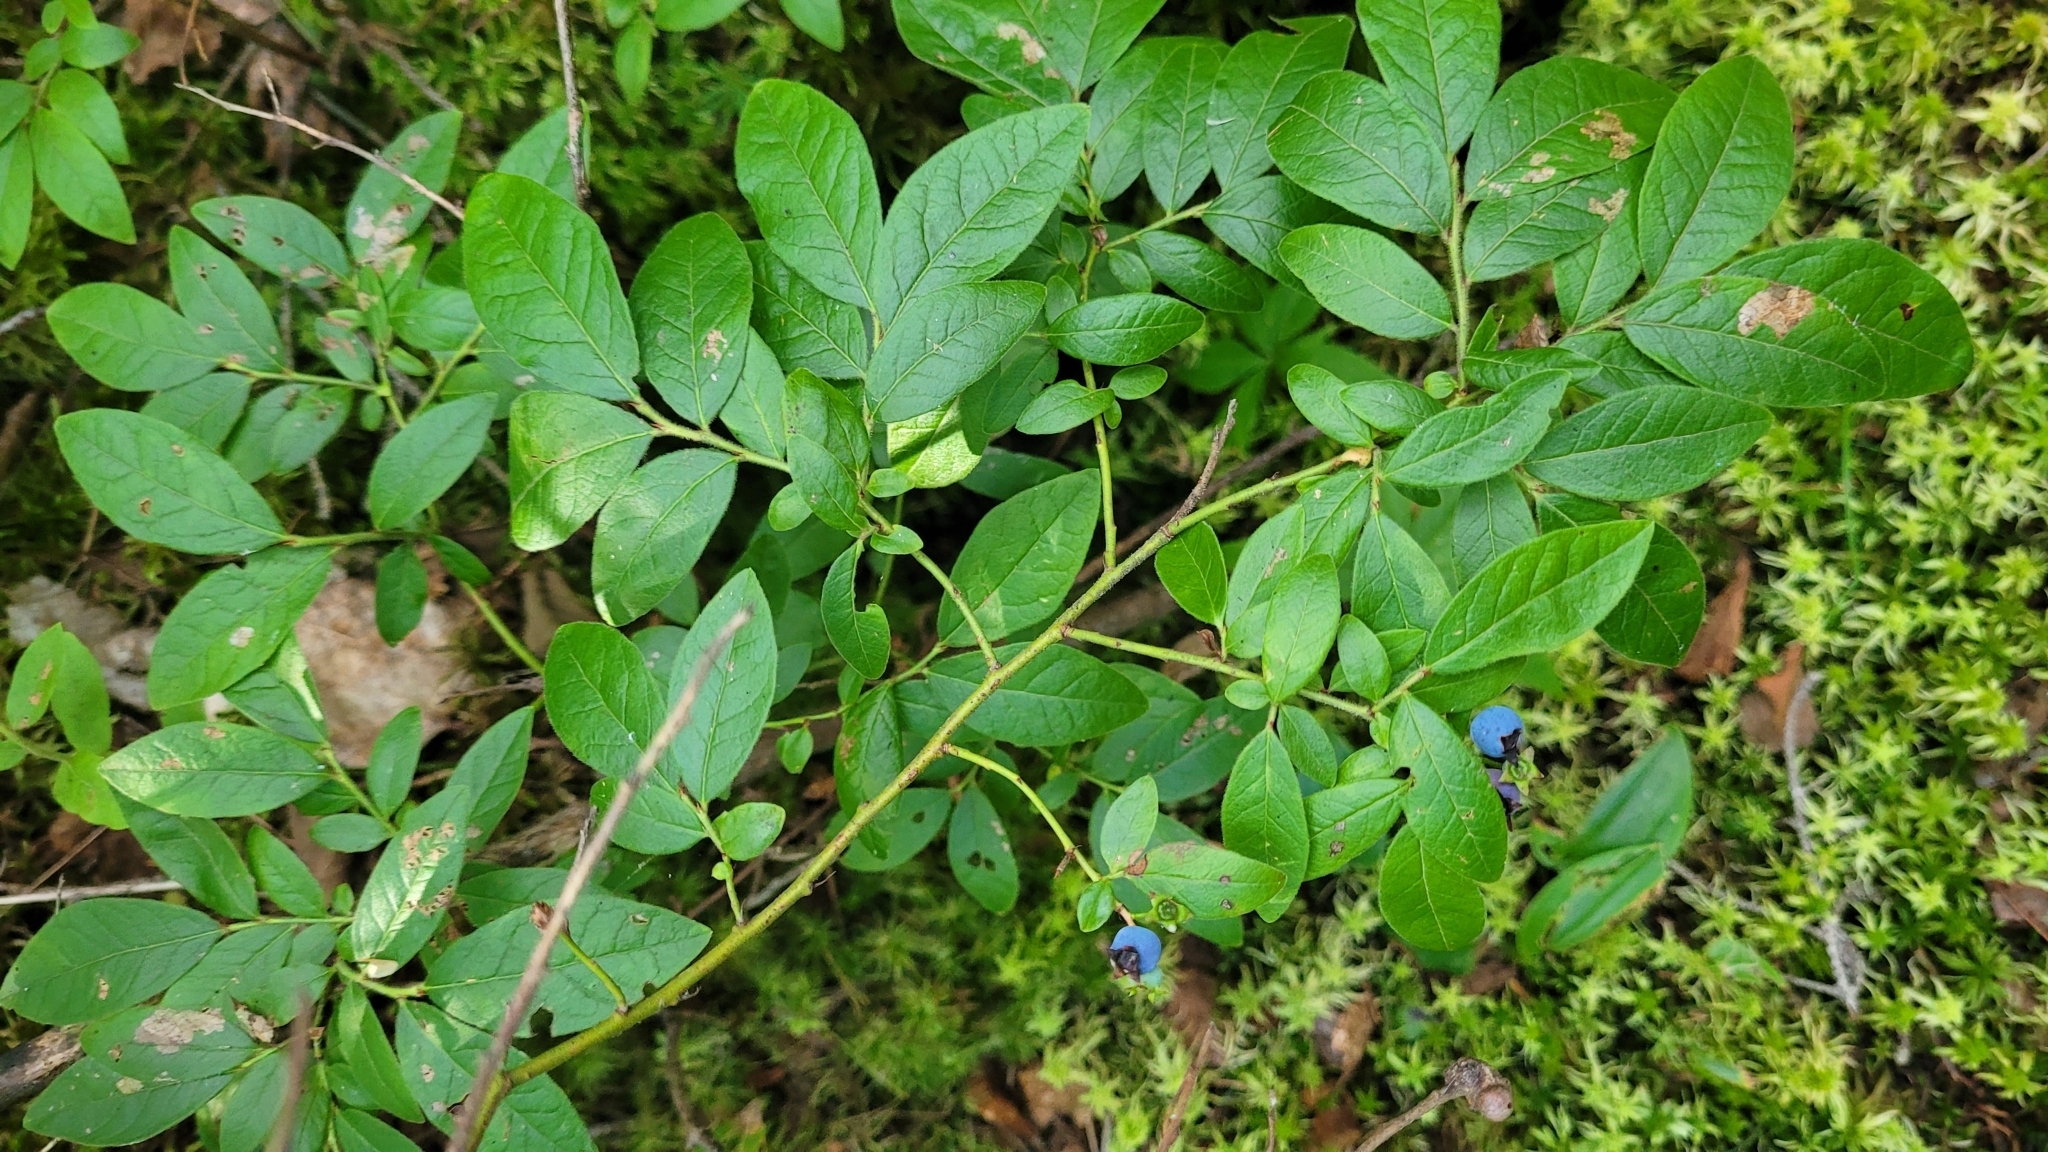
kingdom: Plantae
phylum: Tracheophyta
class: Magnoliopsida
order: Ericales
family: Ericaceae
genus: Vaccinium
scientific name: Vaccinium myrtilloides
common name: Canada blueberry
